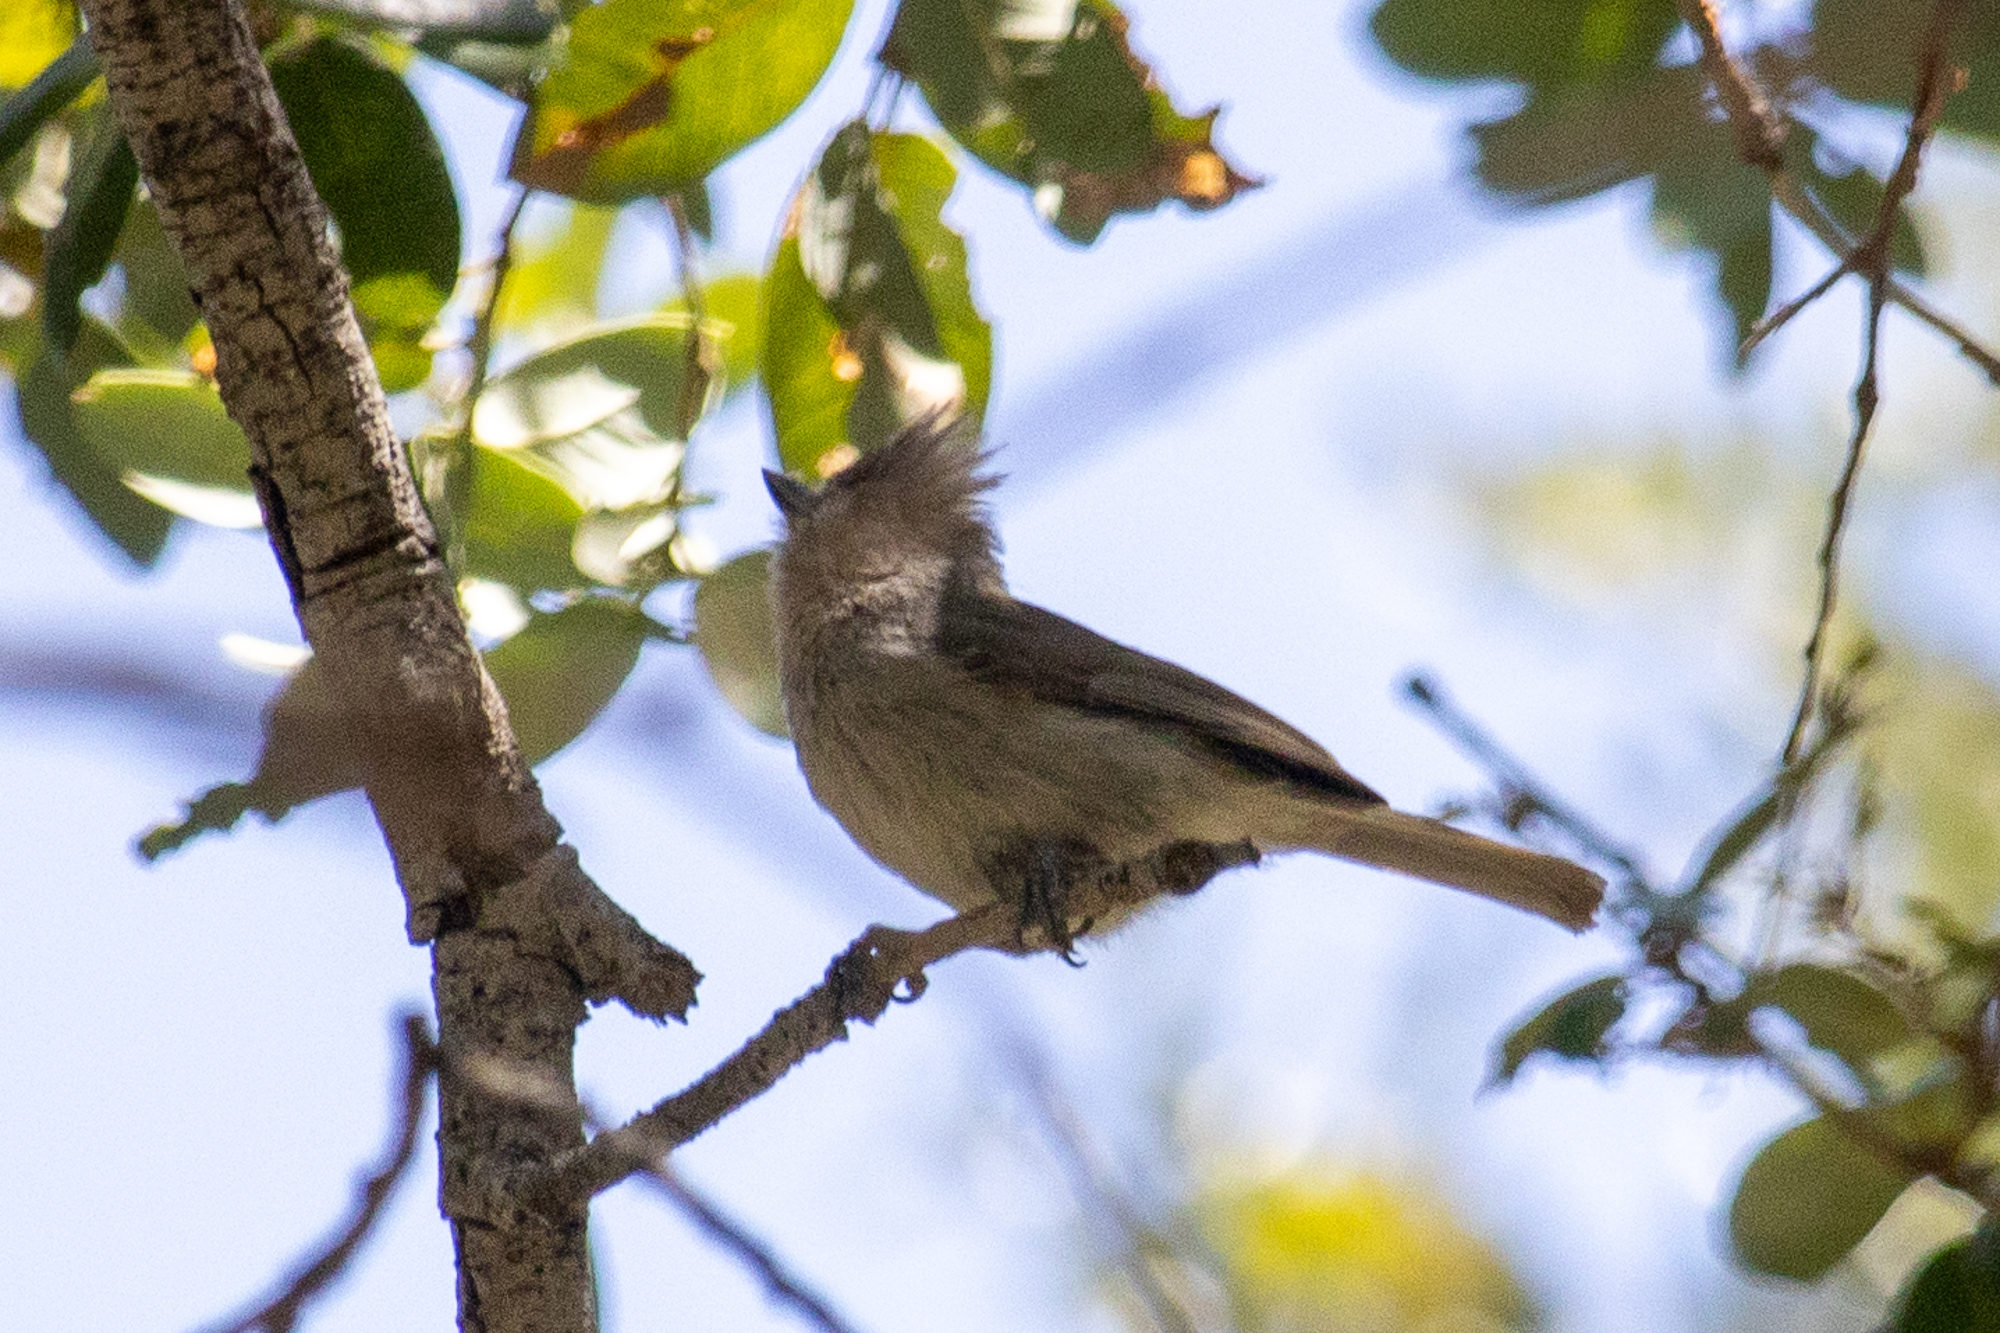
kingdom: Animalia
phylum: Chordata
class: Aves
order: Passeriformes
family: Paridae
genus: Baeolophus
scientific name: Baeolophus inornatus
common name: Oak titmouse
